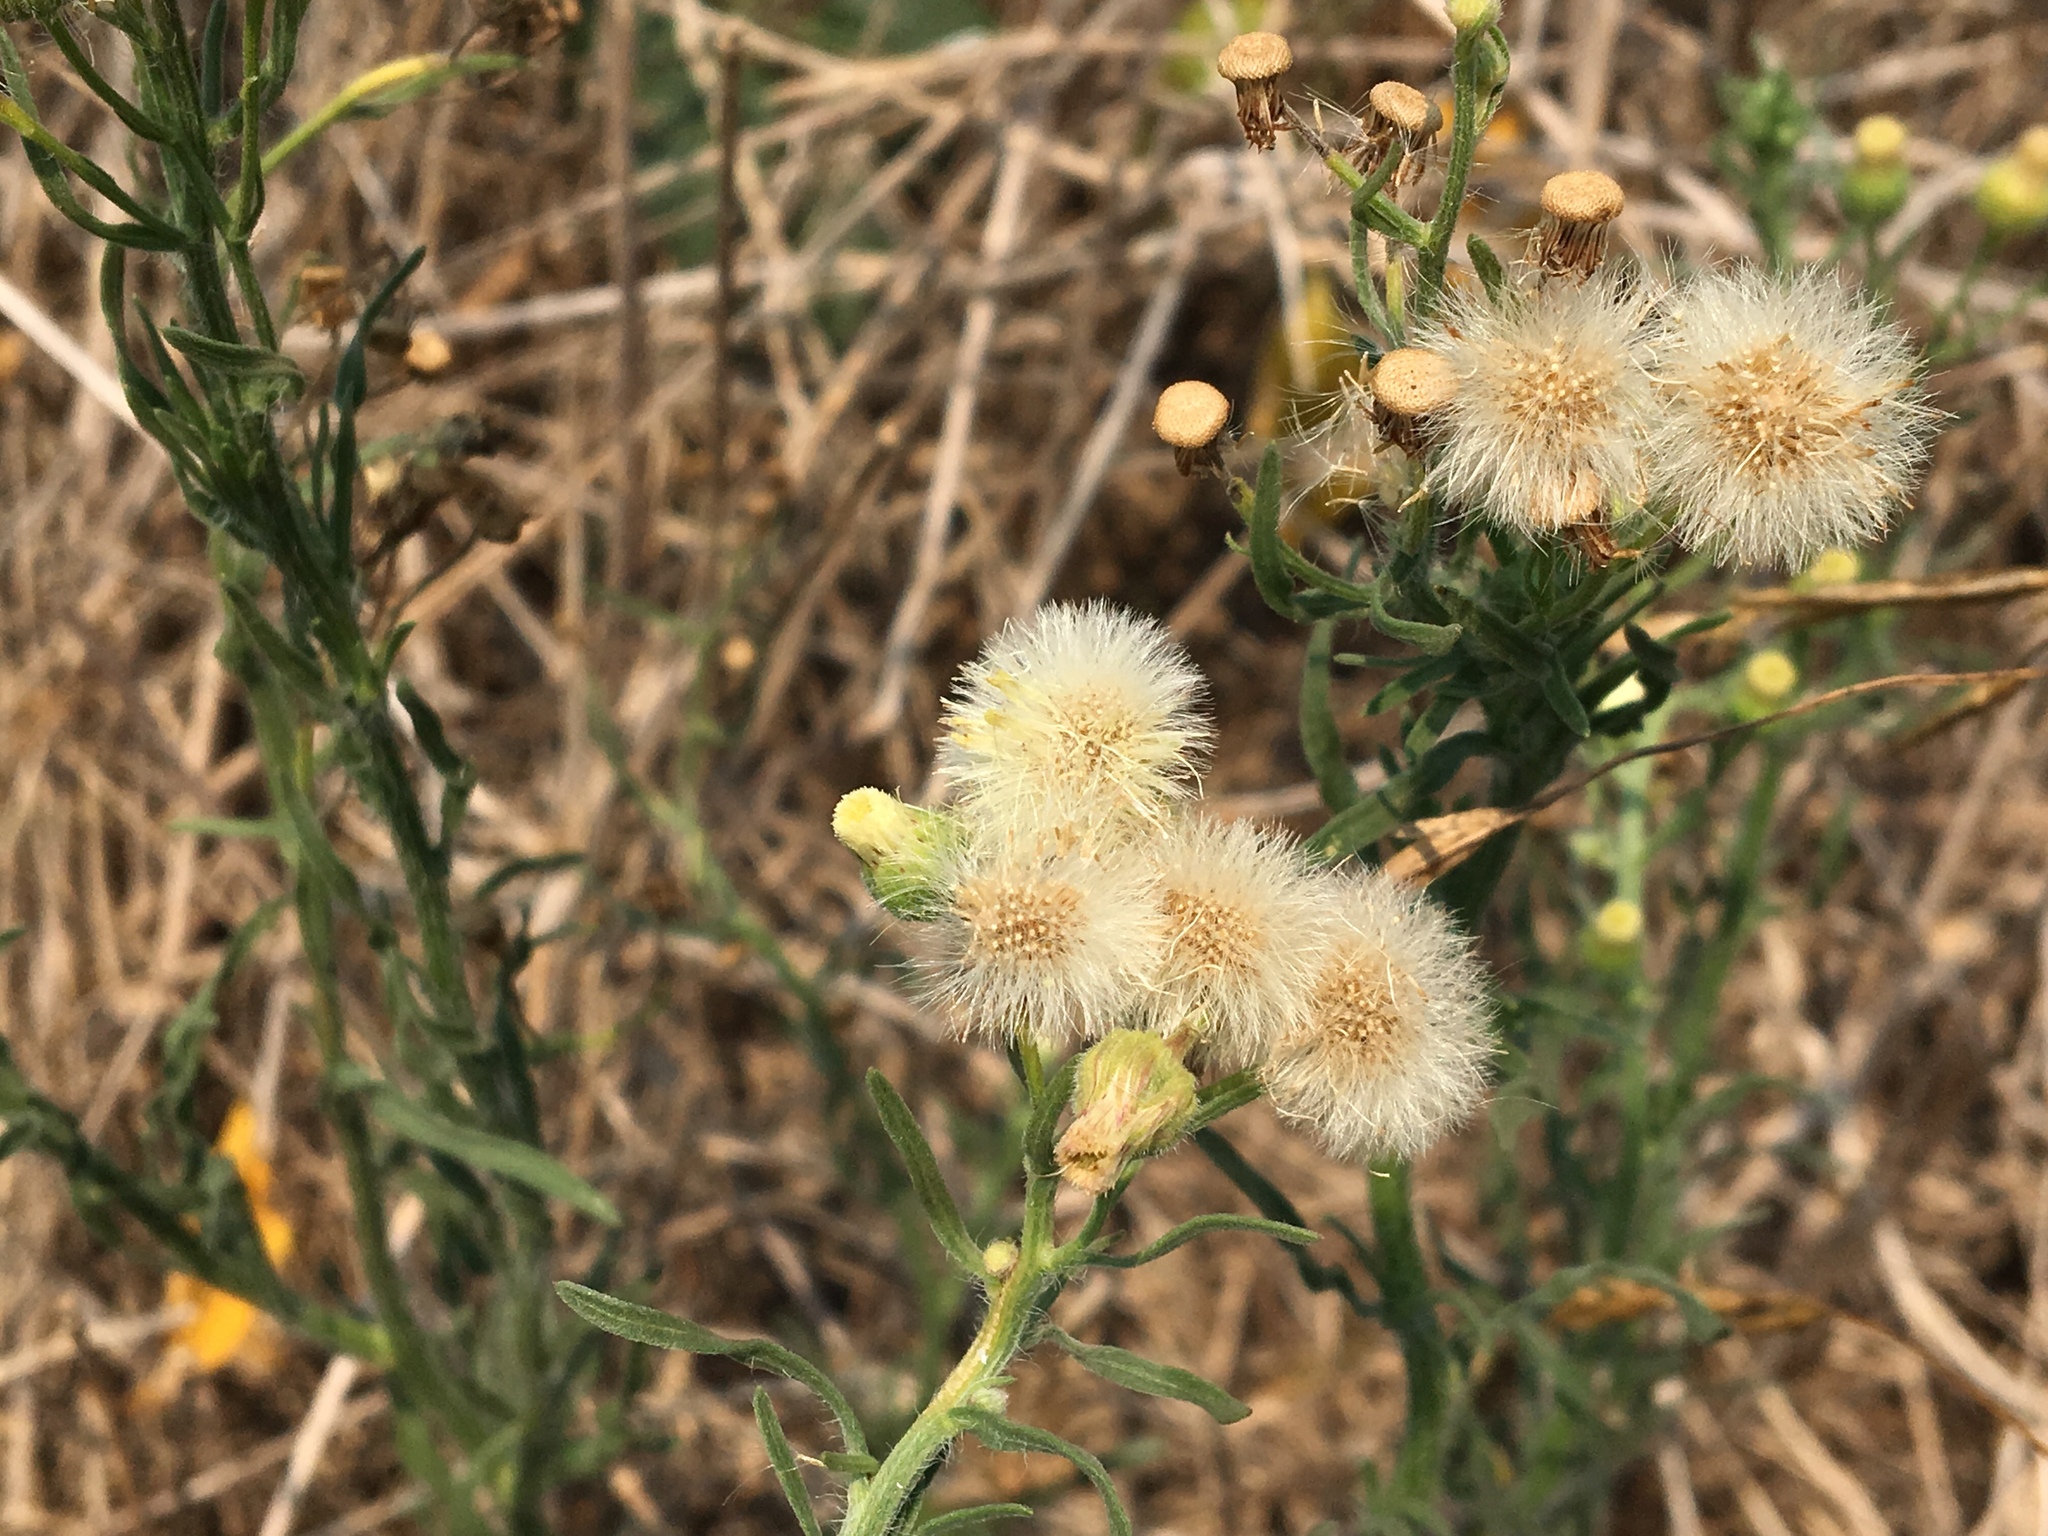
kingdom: Plantae
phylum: Tracheophyta
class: Magnoliopsida
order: Asterales
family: Asteraceae
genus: Erigeron
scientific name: Erigeron bonariensis
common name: Argentine fleabane
